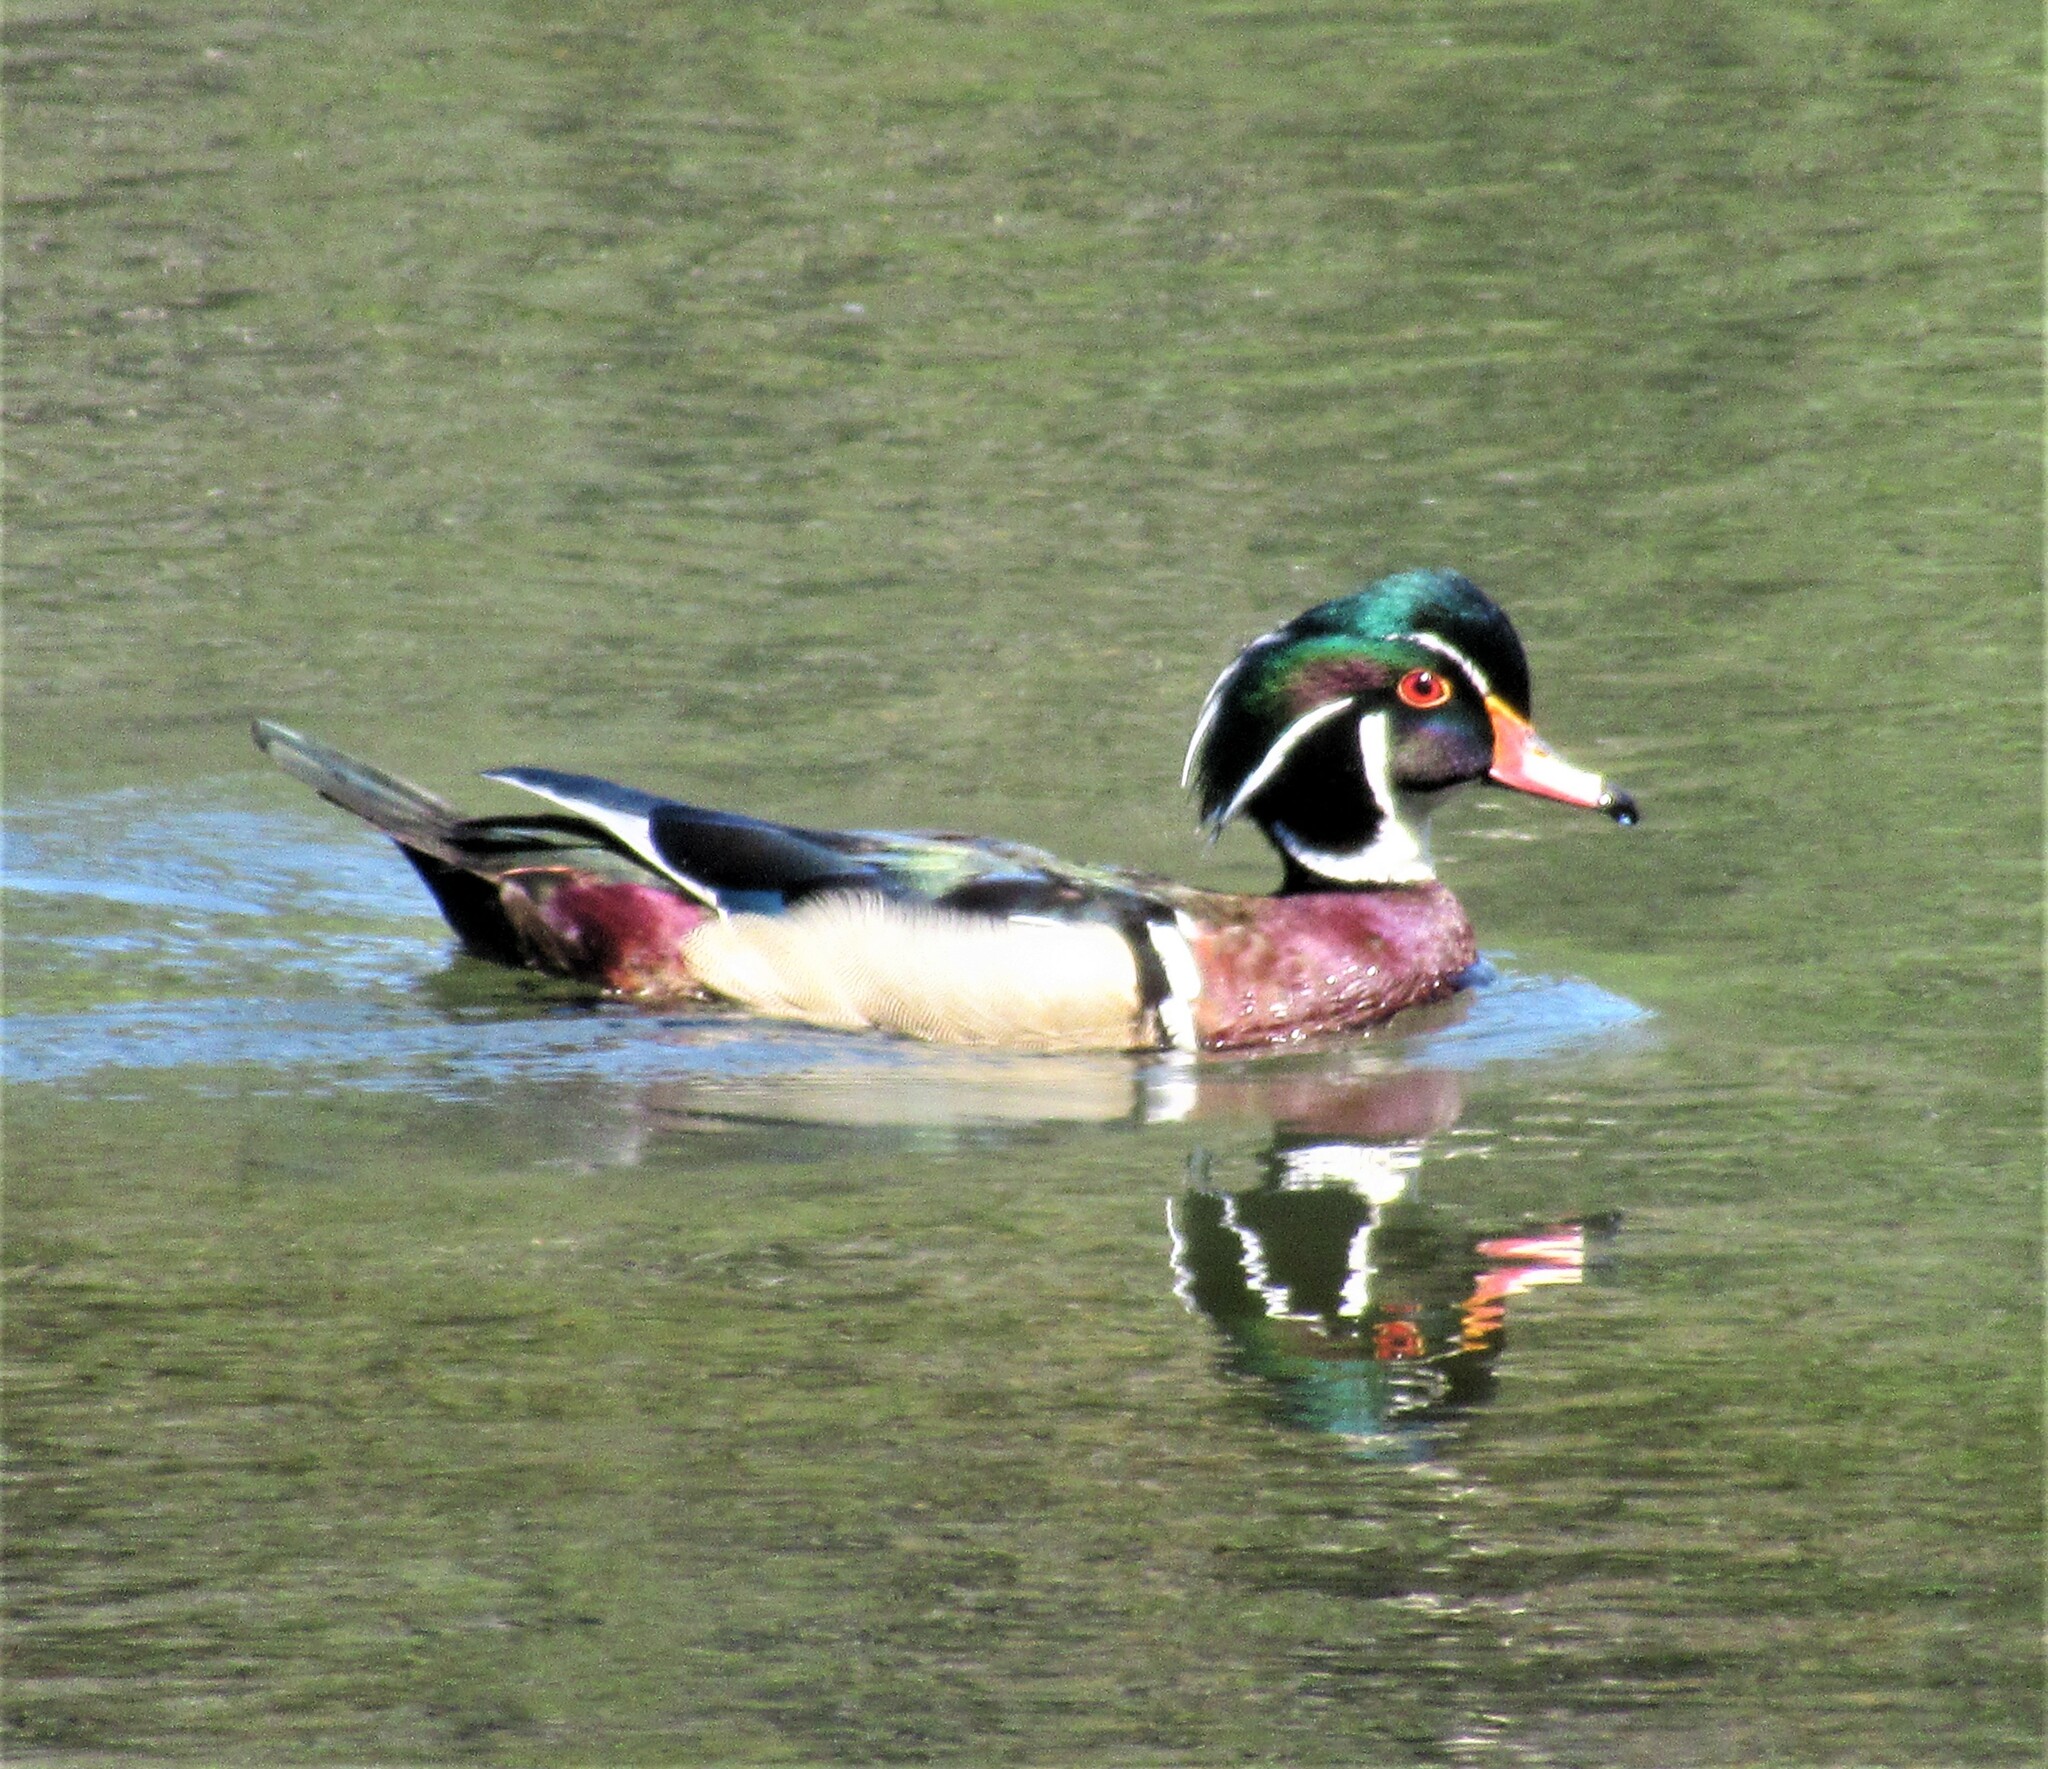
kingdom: Animalia
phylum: Chordata
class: Aves
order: Anseriformes
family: Anatidae
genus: Aix
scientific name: Aix sponsa
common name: Wood duck
